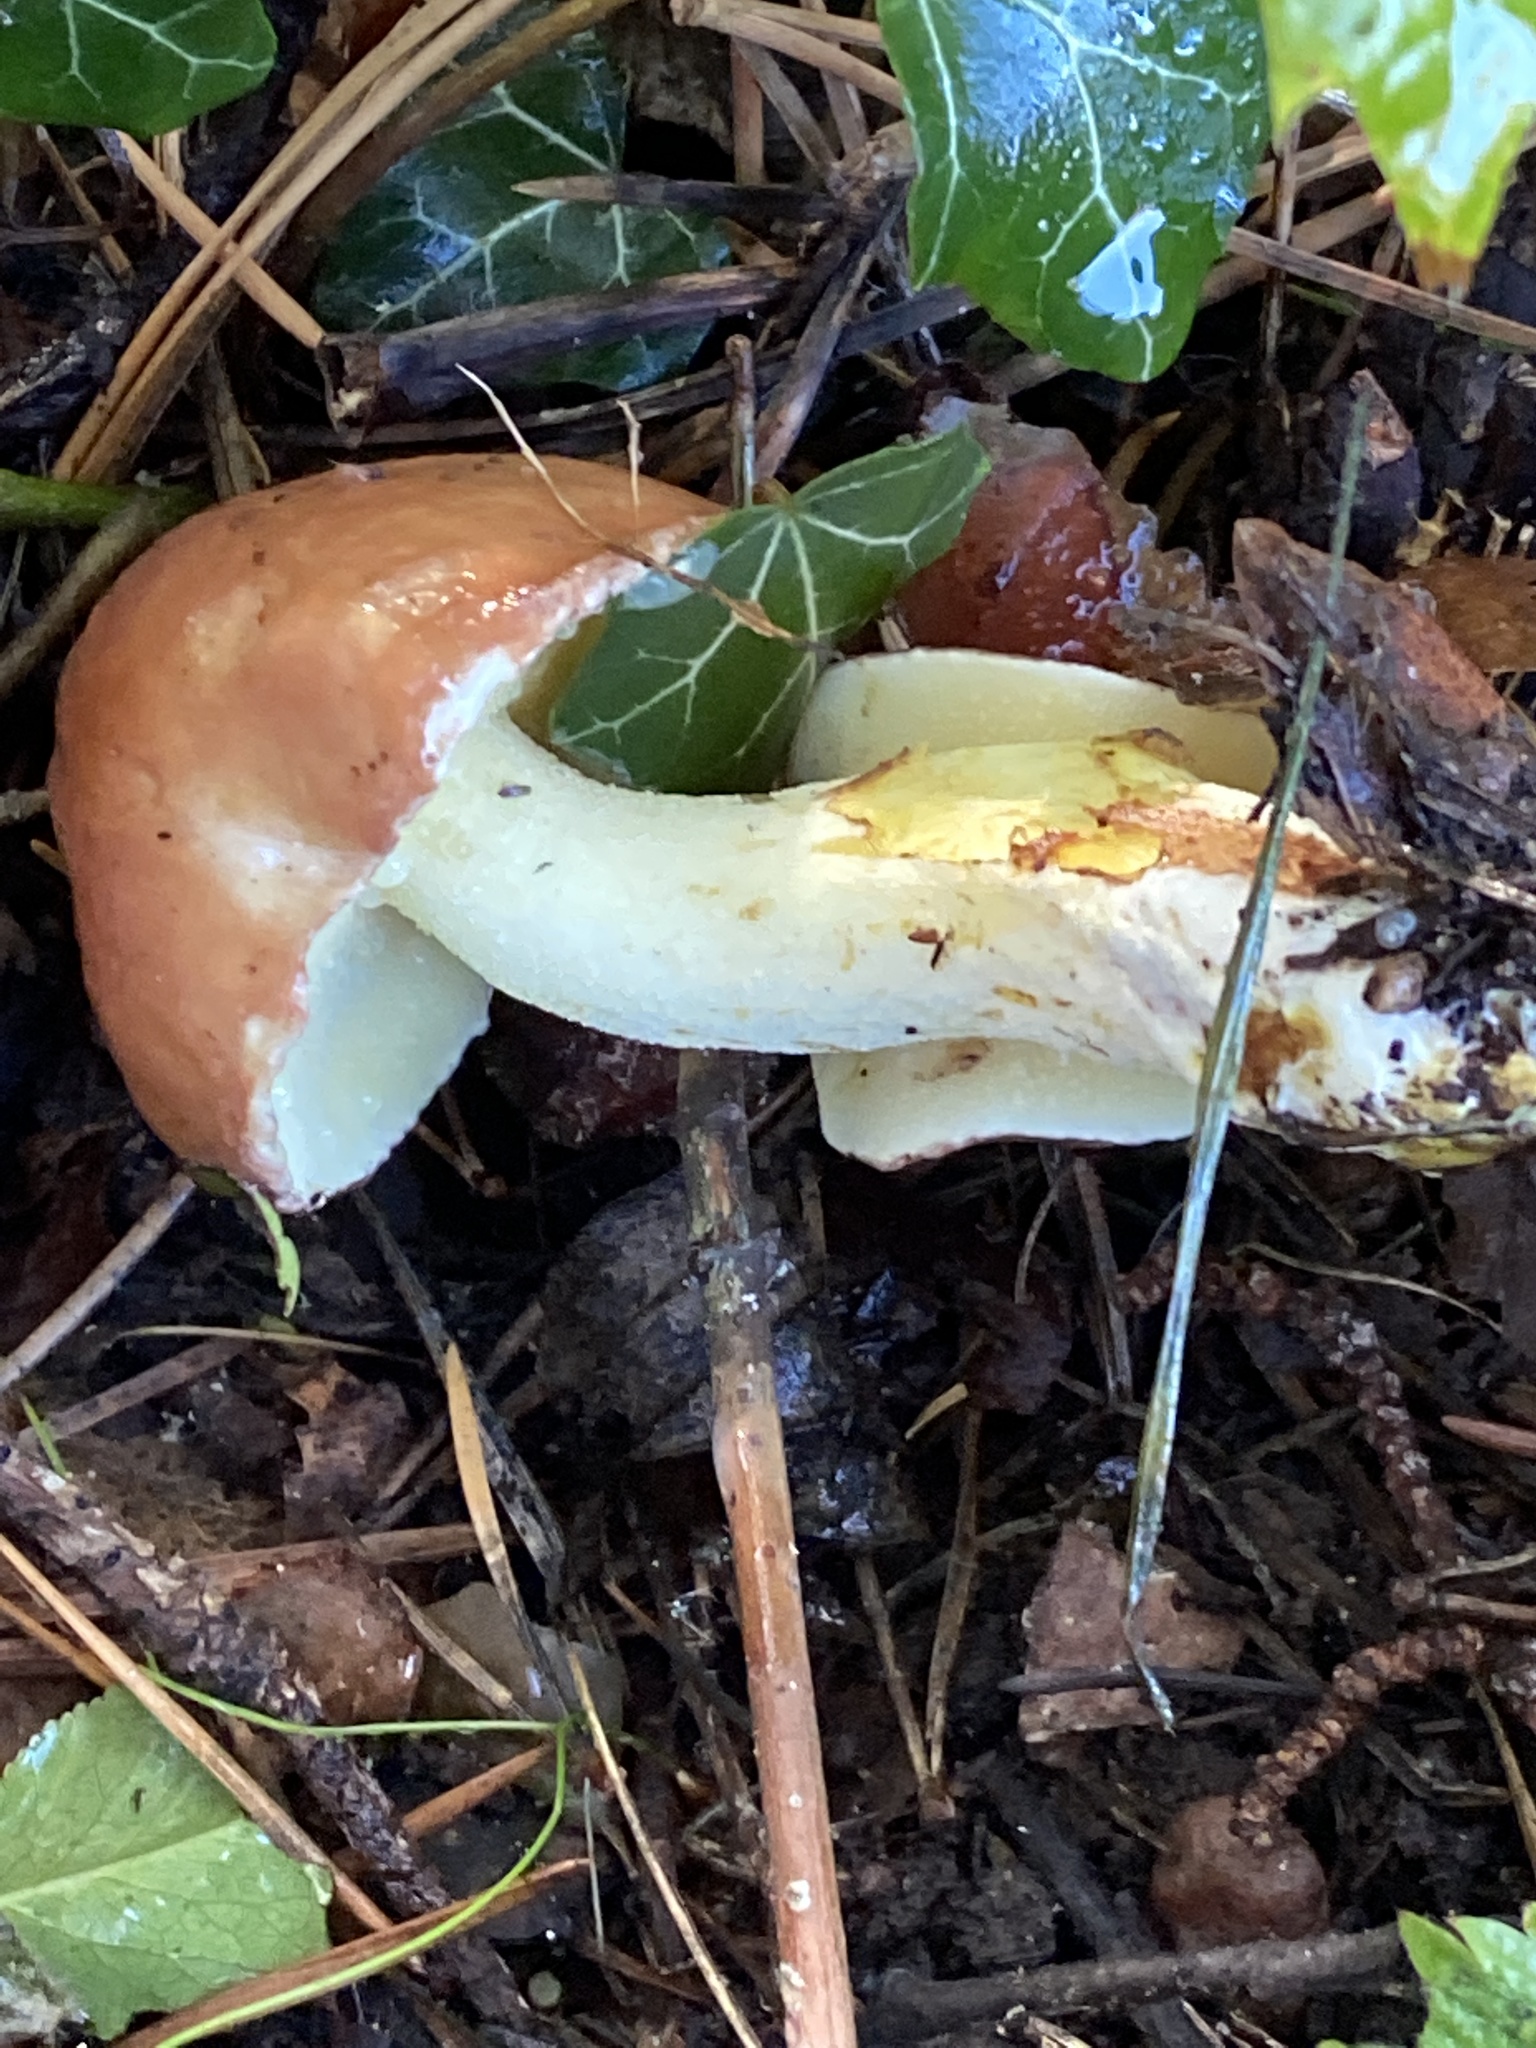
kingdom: Fungi
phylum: Basidiomycota
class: Agaricomycetes
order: Boletales
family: Suillaceae
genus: Suillus
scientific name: Suillus granulatus
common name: Weeping bolete
